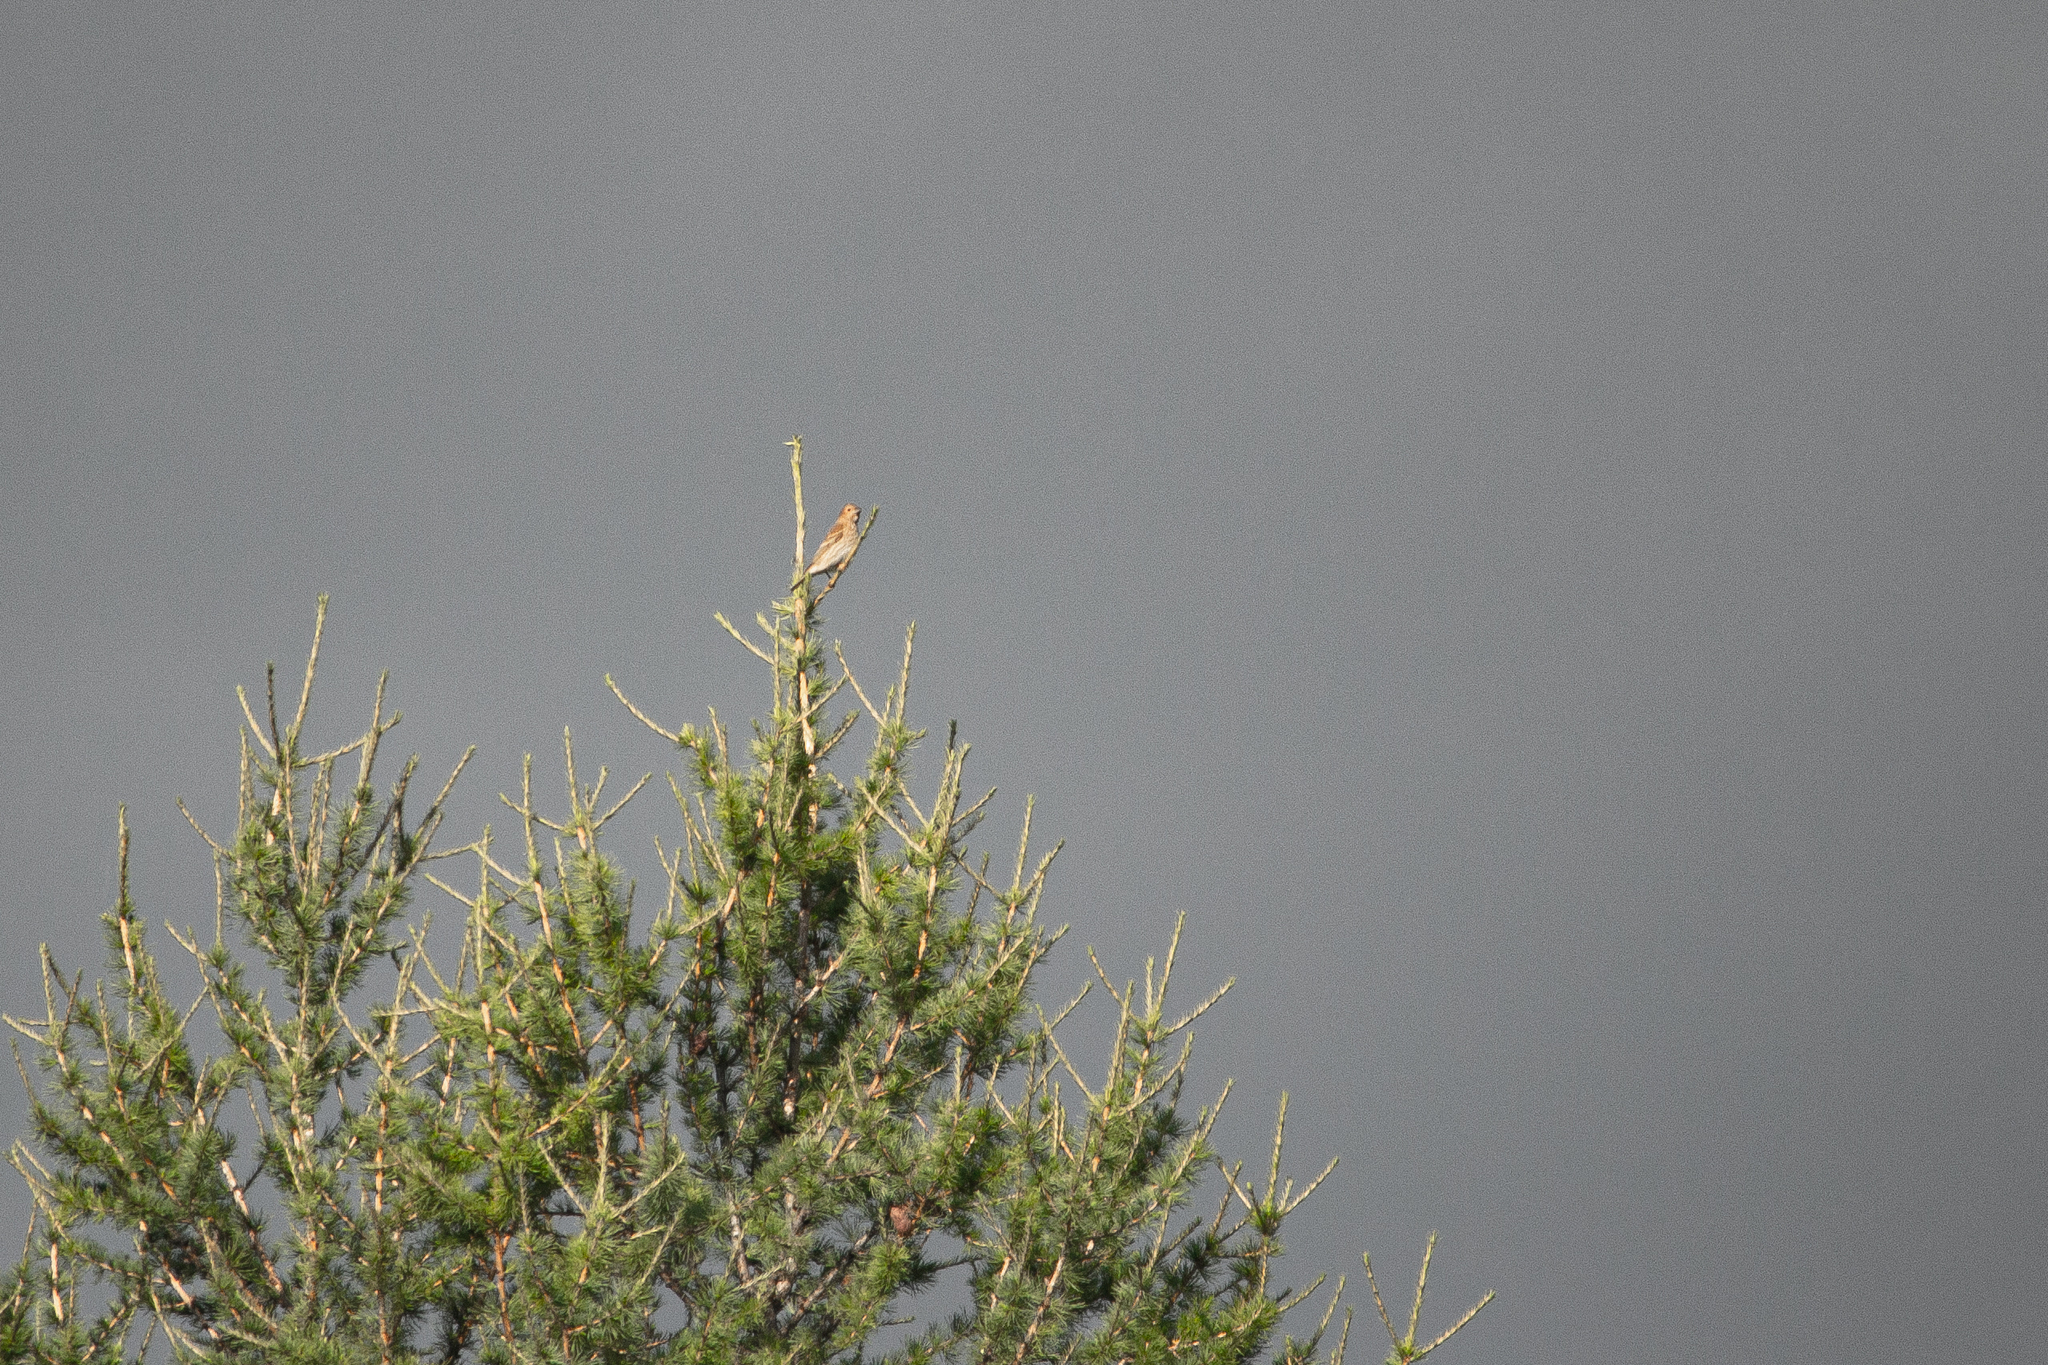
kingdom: Animalia
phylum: Chordata
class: Aves
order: Passeriformes
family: Fringillidae
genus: Carpodacus
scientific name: Carpodacus erythrinus
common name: Common rosefinch
